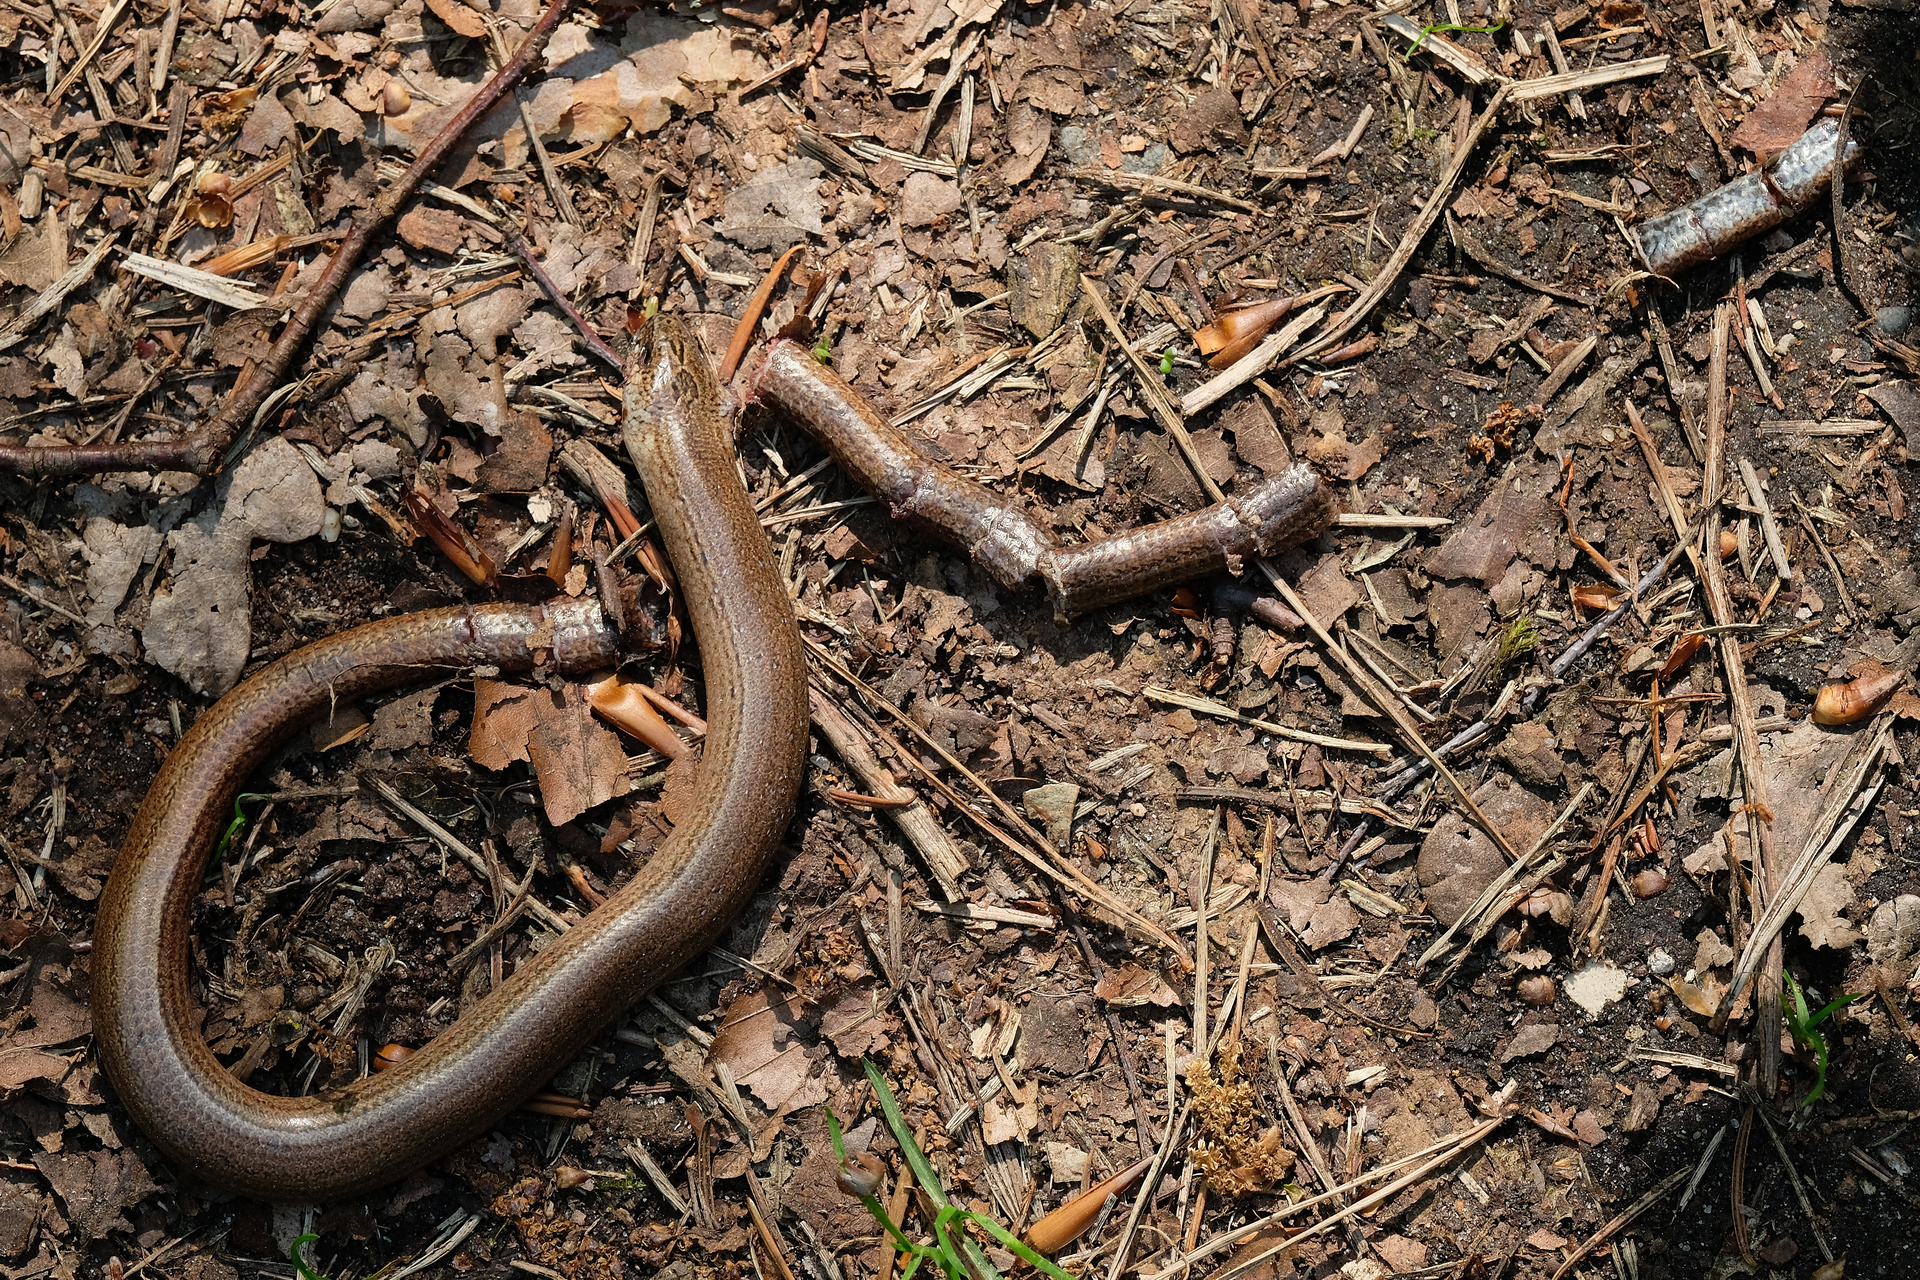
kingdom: Animalia
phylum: Chordata
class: Squamata
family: Anguidae
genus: Anguis
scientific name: Anguis fragilis
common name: Slow worm
